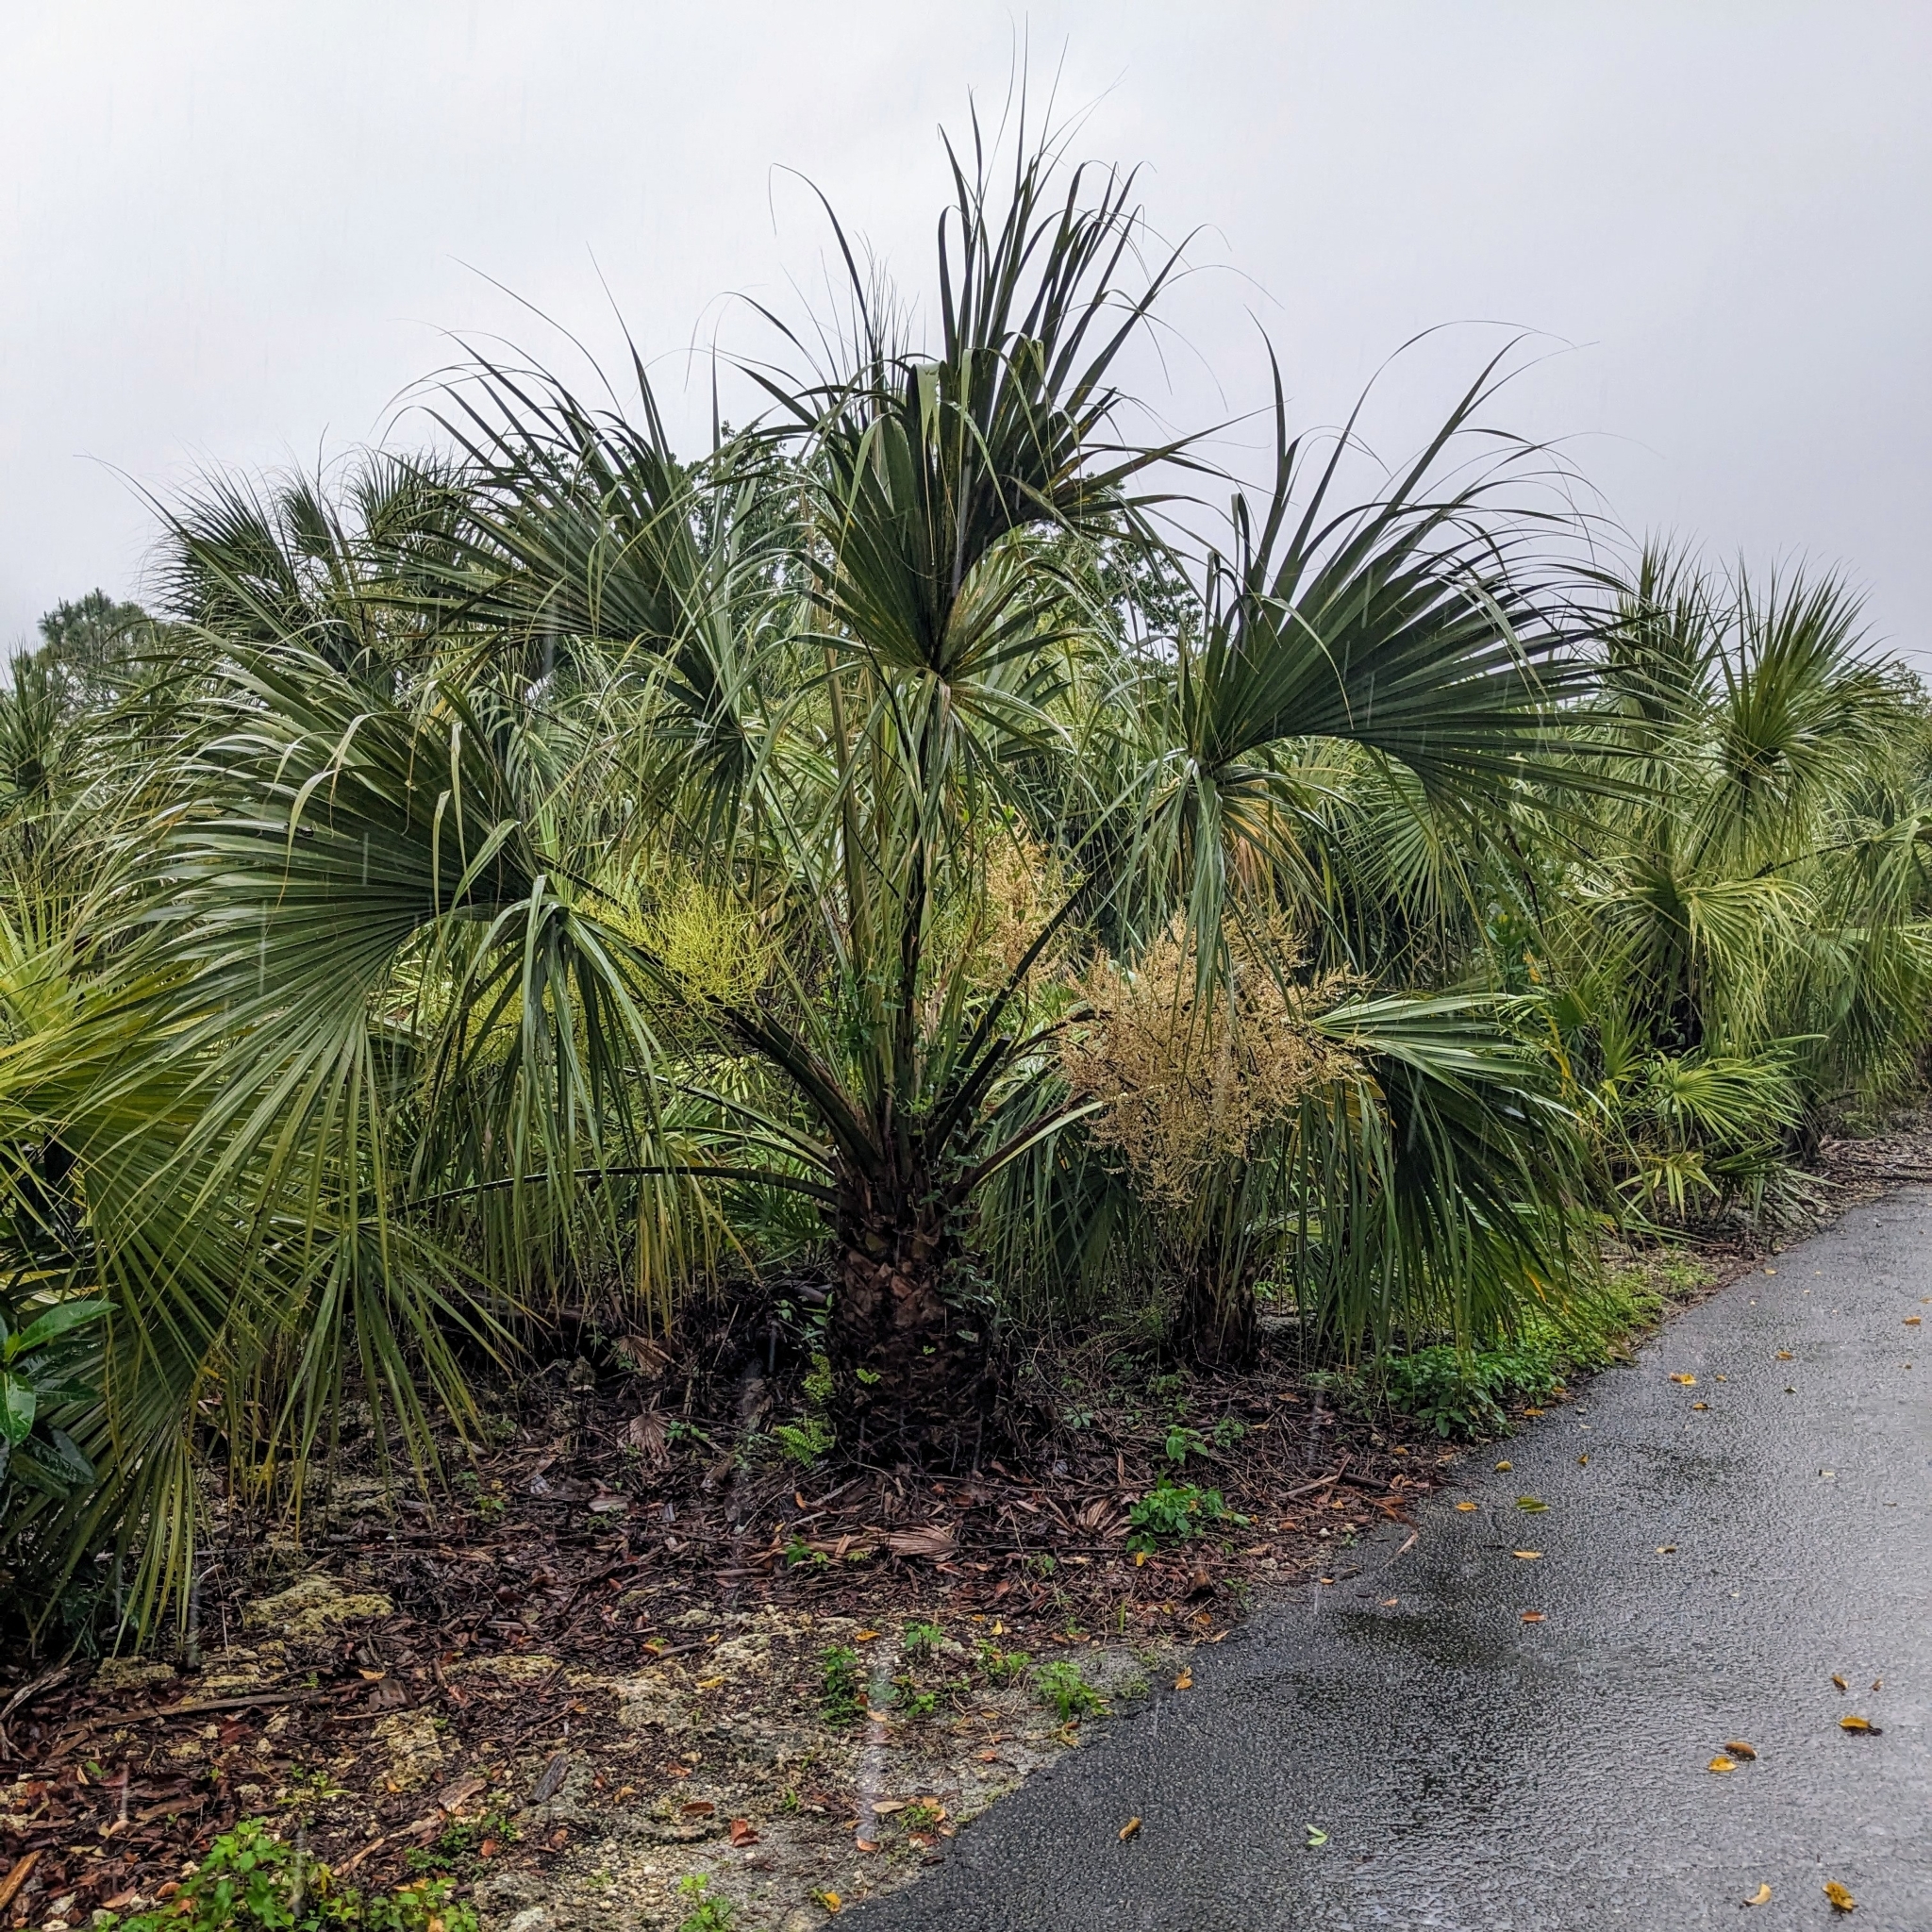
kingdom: Plantae
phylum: Tracheophyta
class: Liliopsida
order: Arecales
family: Arecaceae
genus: Sabal
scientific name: Sabal palmetto
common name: Blue palmetto
